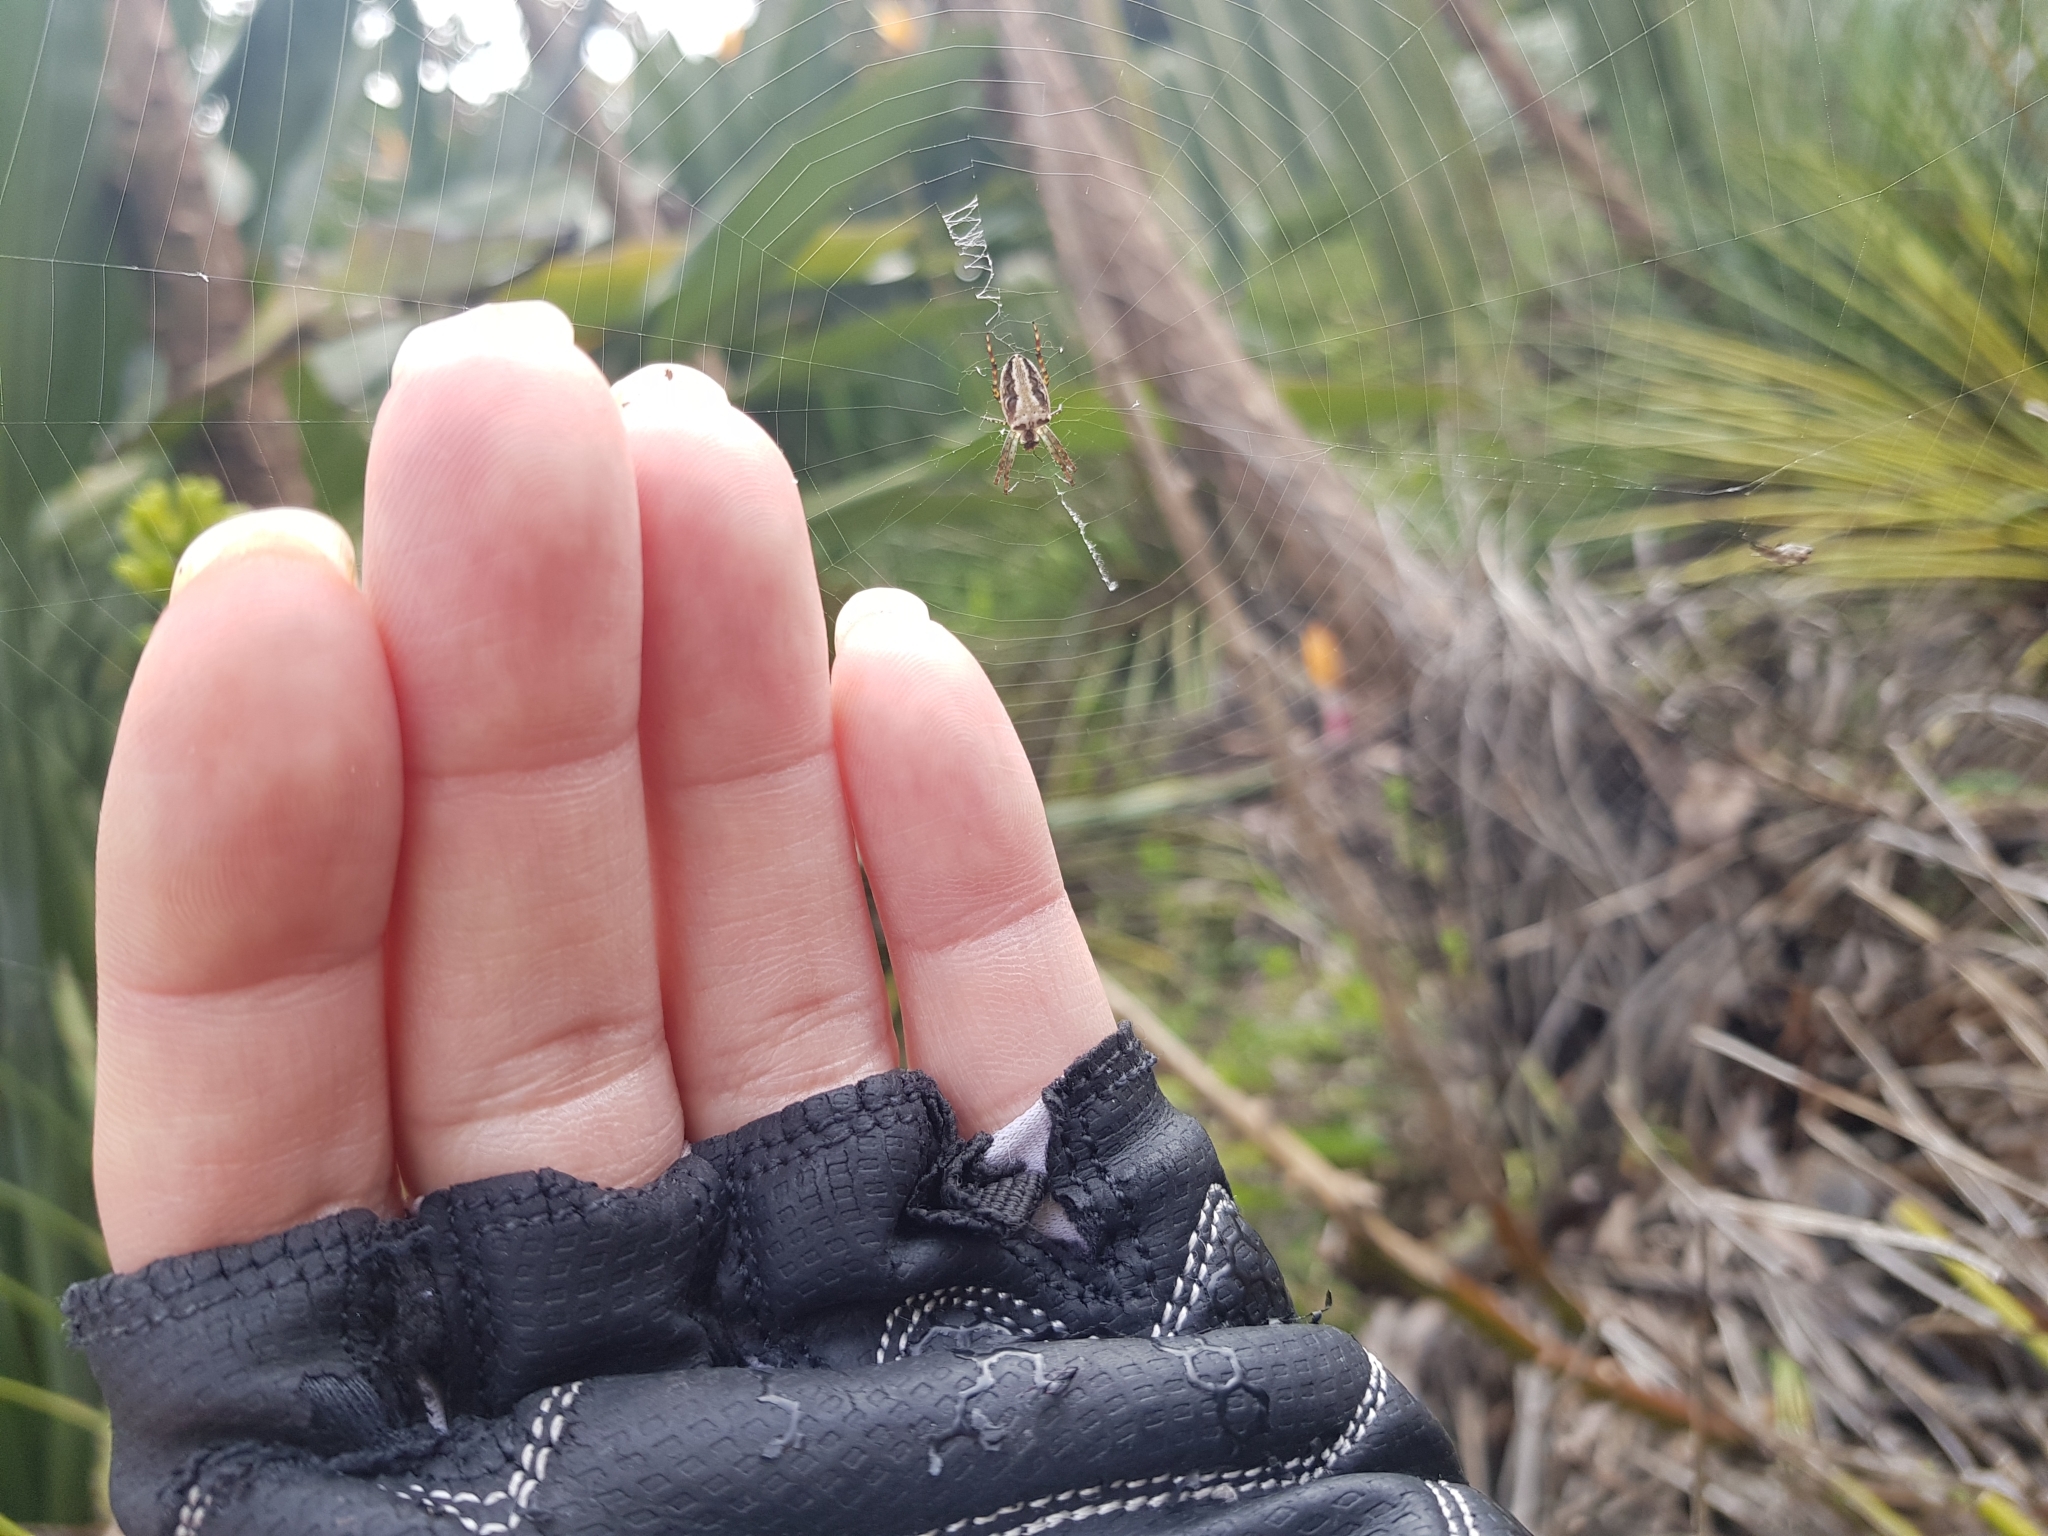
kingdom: Animalia
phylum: Arthropoda
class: Arachnida
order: Araneae
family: Araneidae
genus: Plebs
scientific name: Plebs eburnus
